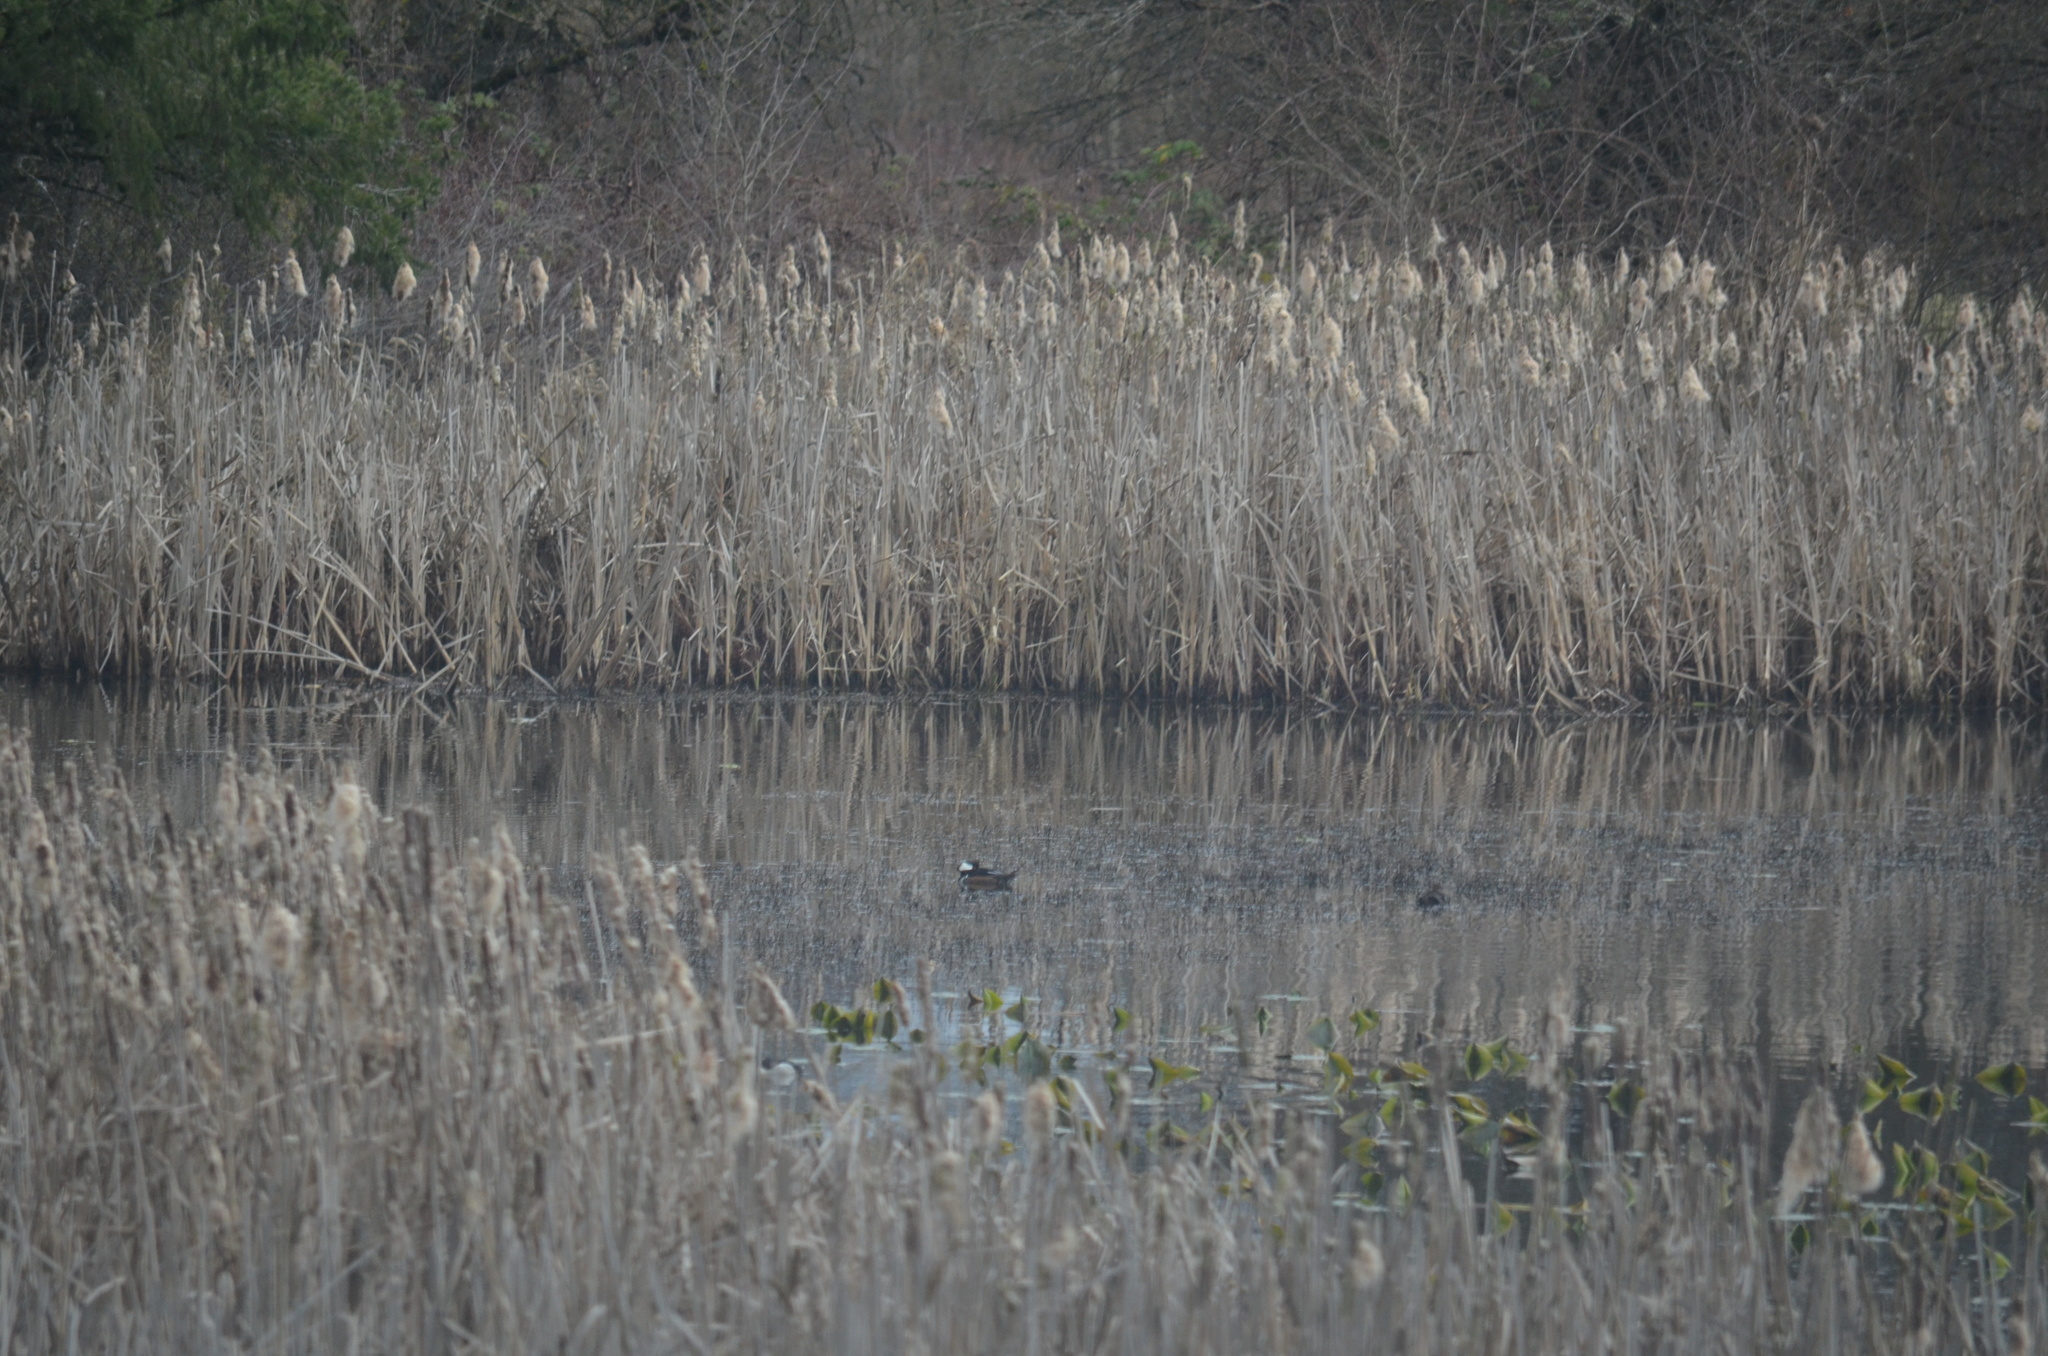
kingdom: Animalia
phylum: Chordata
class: Aves
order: Anseriformes
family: Anatidae
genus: Lophodytes
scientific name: Lophodytes cucullatus
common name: Hooded merganser
